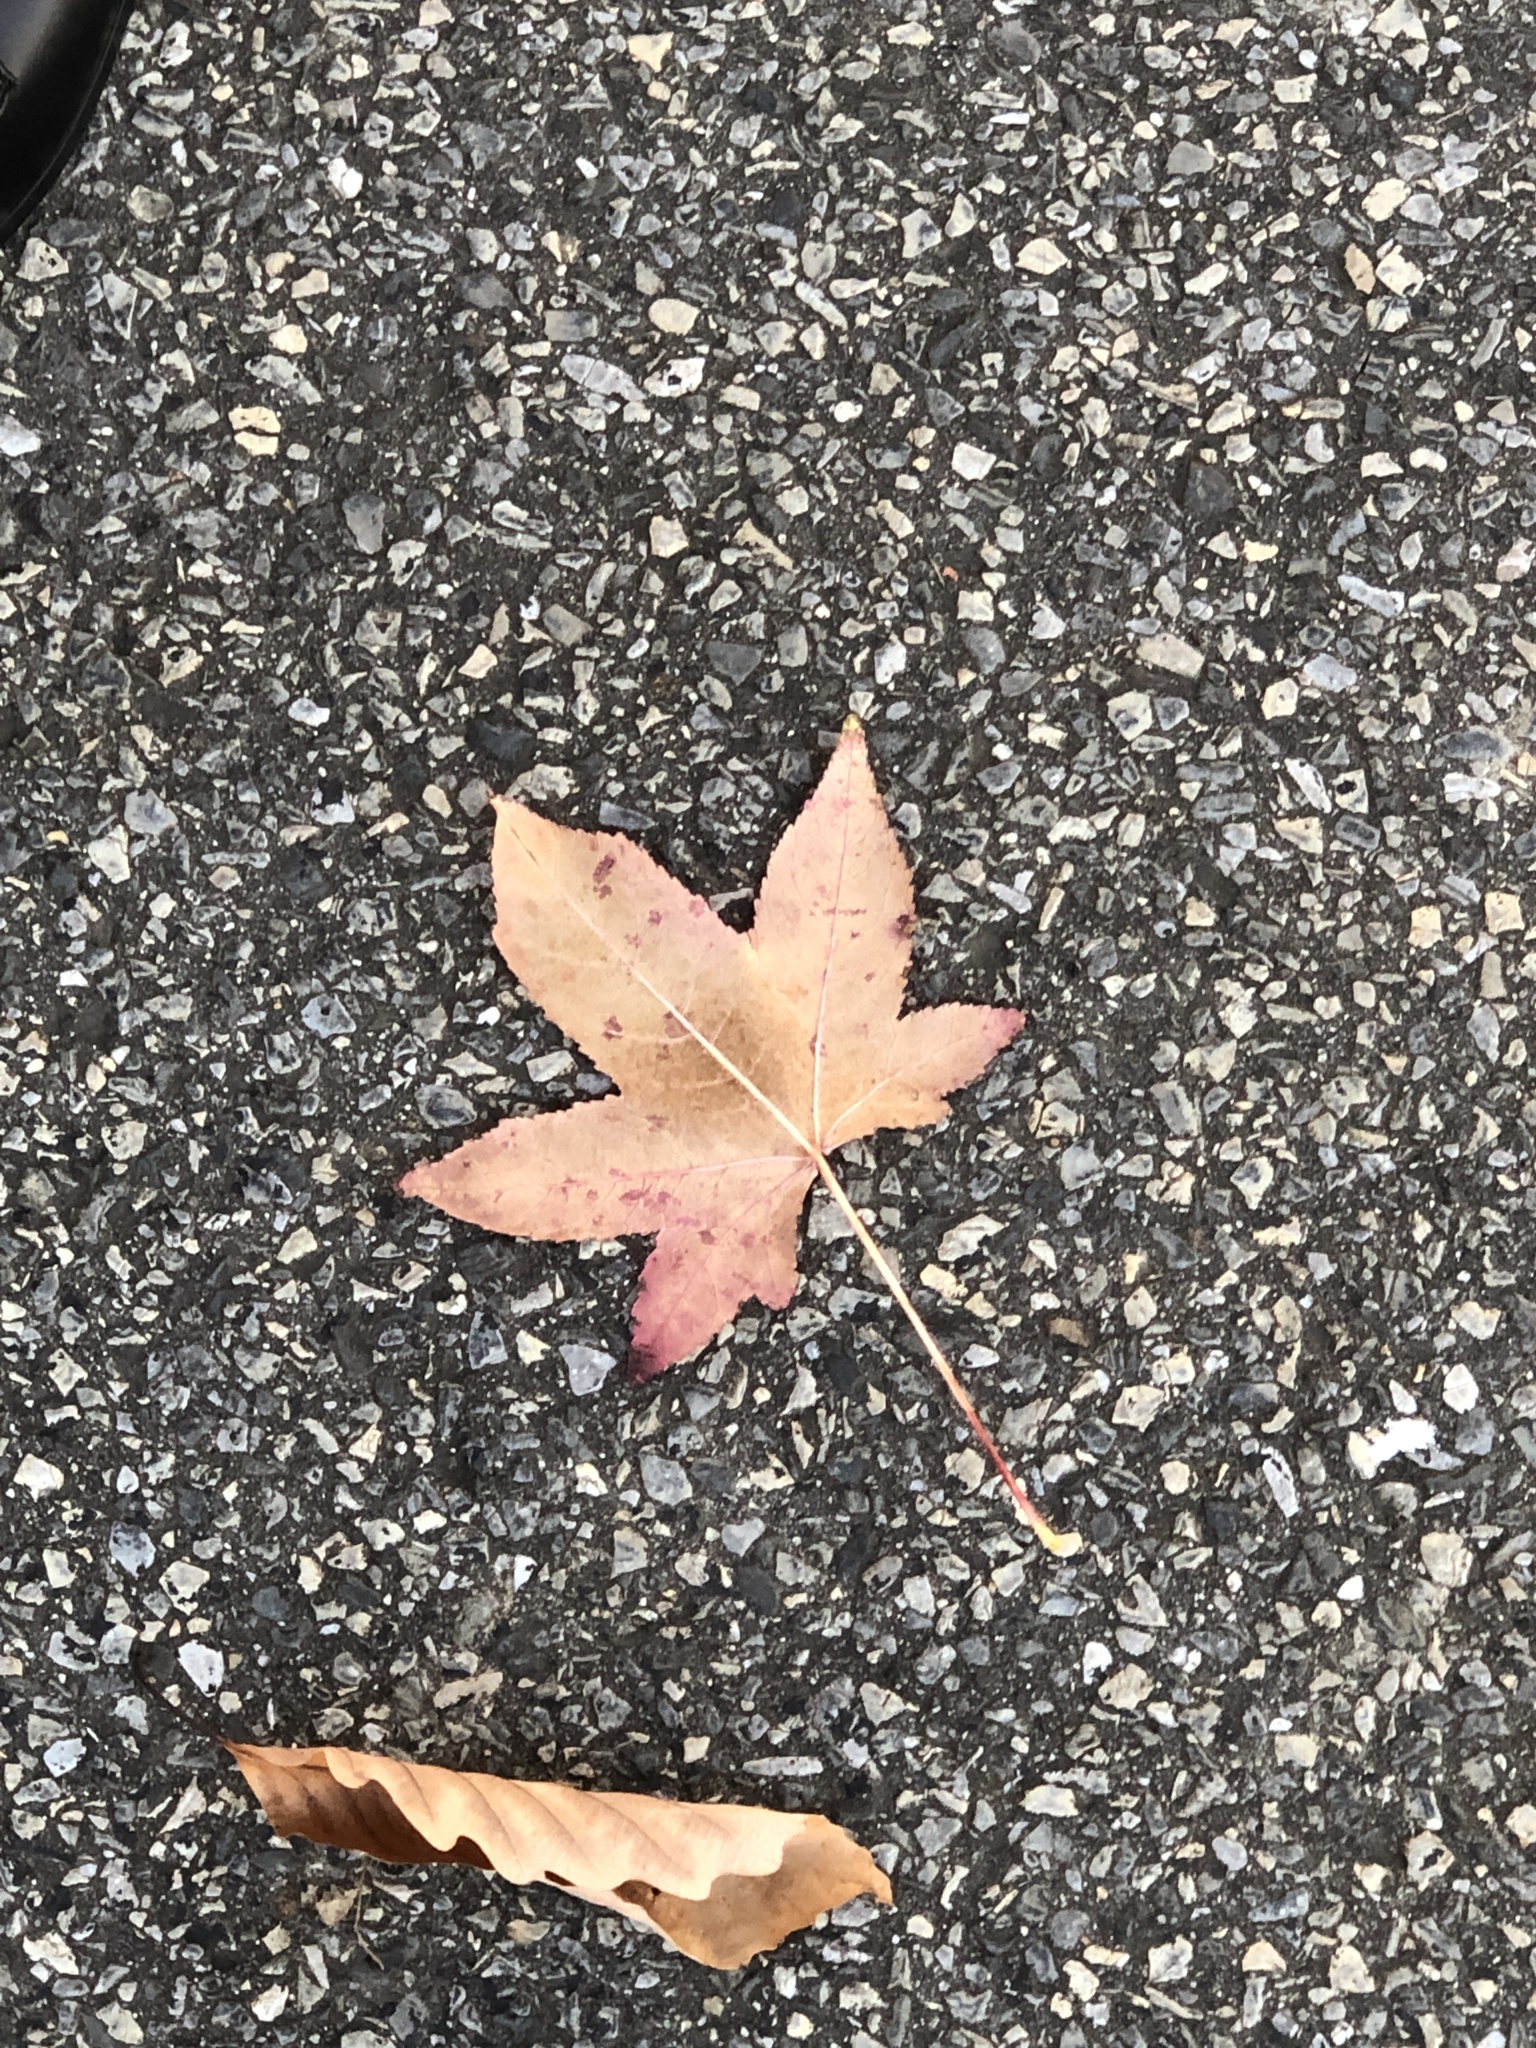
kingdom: Plantae
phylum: Tracheophyta
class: Magnoliopsida
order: Saxifragales
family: Altingiaceae
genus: Liquidambar
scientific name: Liquidambar styraciflua
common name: Sweet gum
